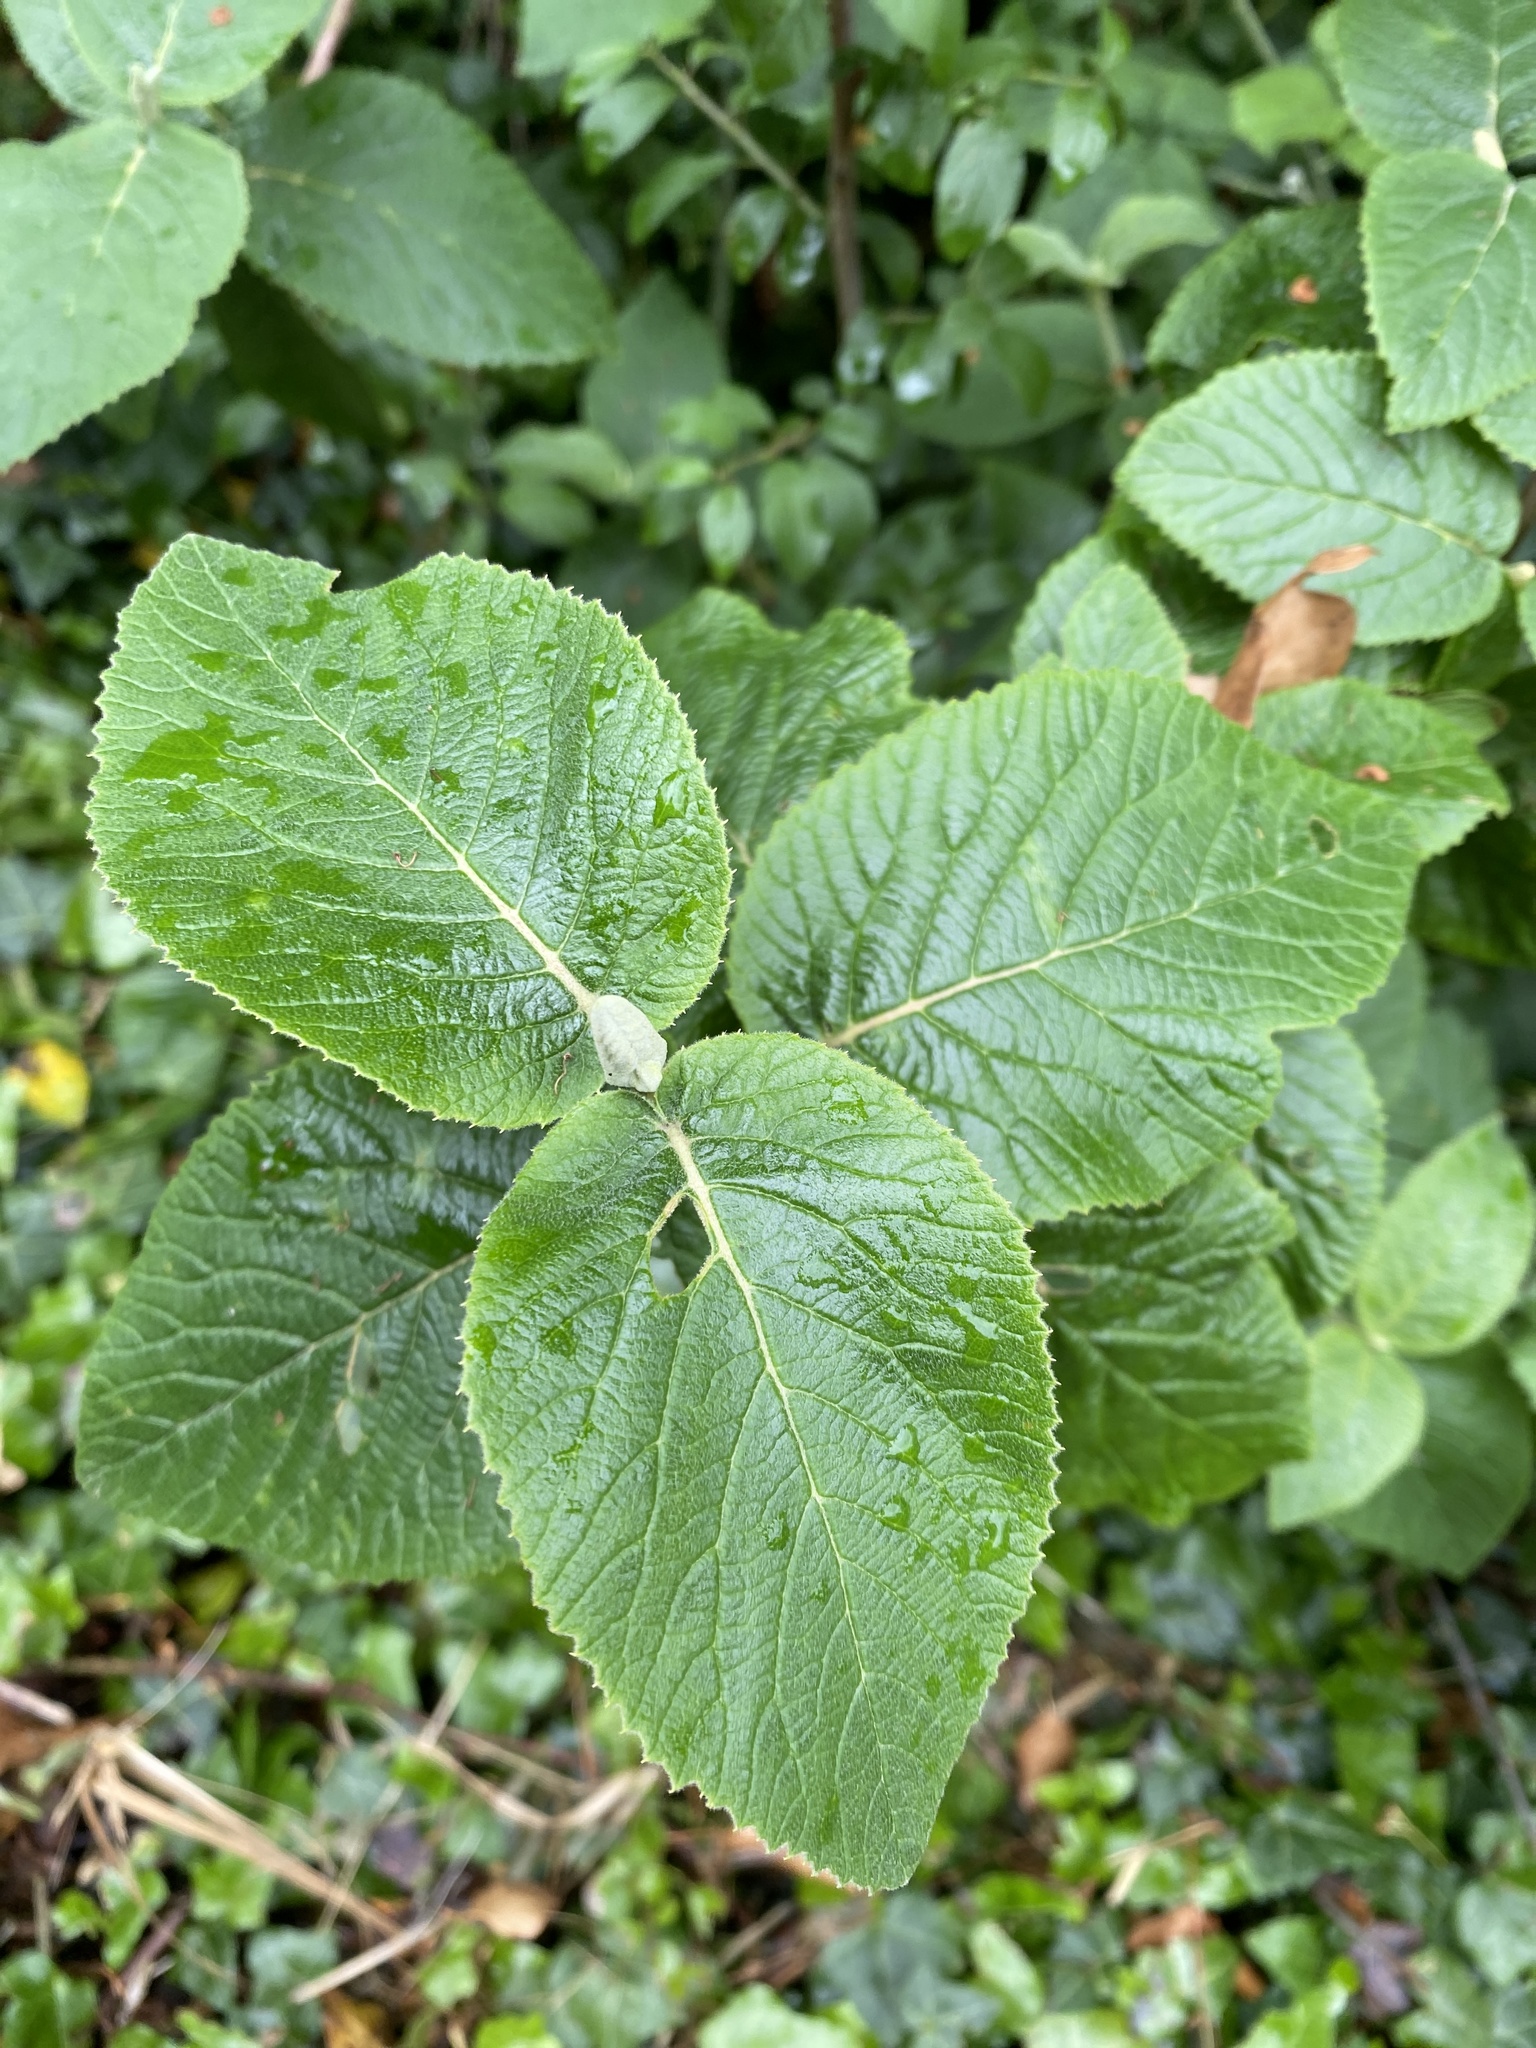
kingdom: Plantae
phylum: Tracheophyta
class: Magnoliopsida
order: Dipsacales
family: Viburnaceae
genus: Viburnum
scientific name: Viburnum lantana
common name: Wayfaring tree
